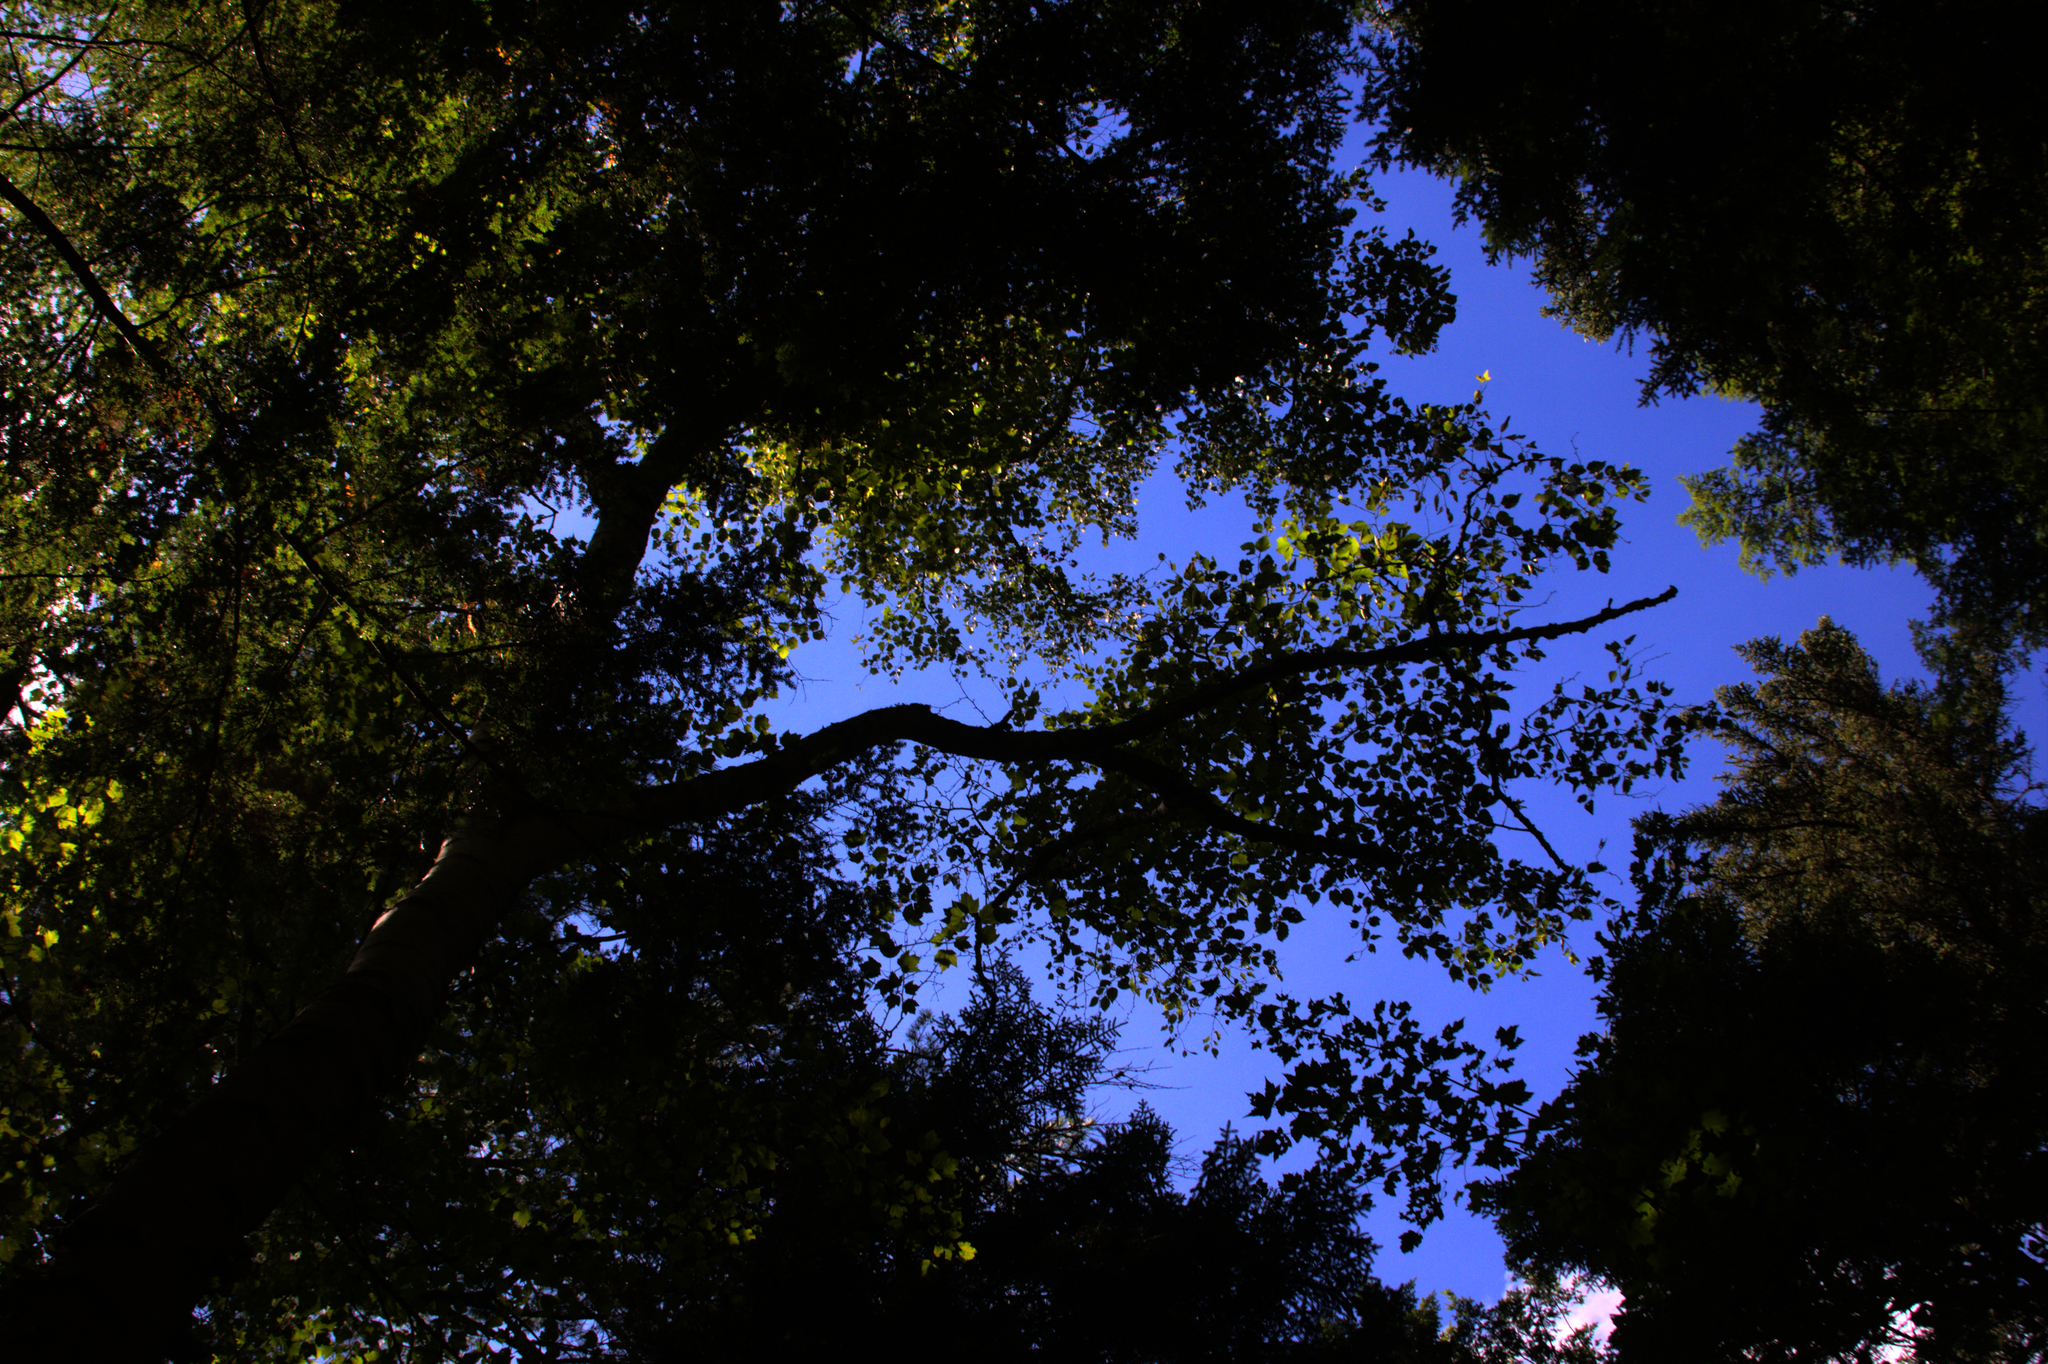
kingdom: Plantae
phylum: Tracheophyta
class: Magnoliopsida
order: Fagales
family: Betulaceae
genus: Betula
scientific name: Betula alleghaniensis
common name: Yellow birch
